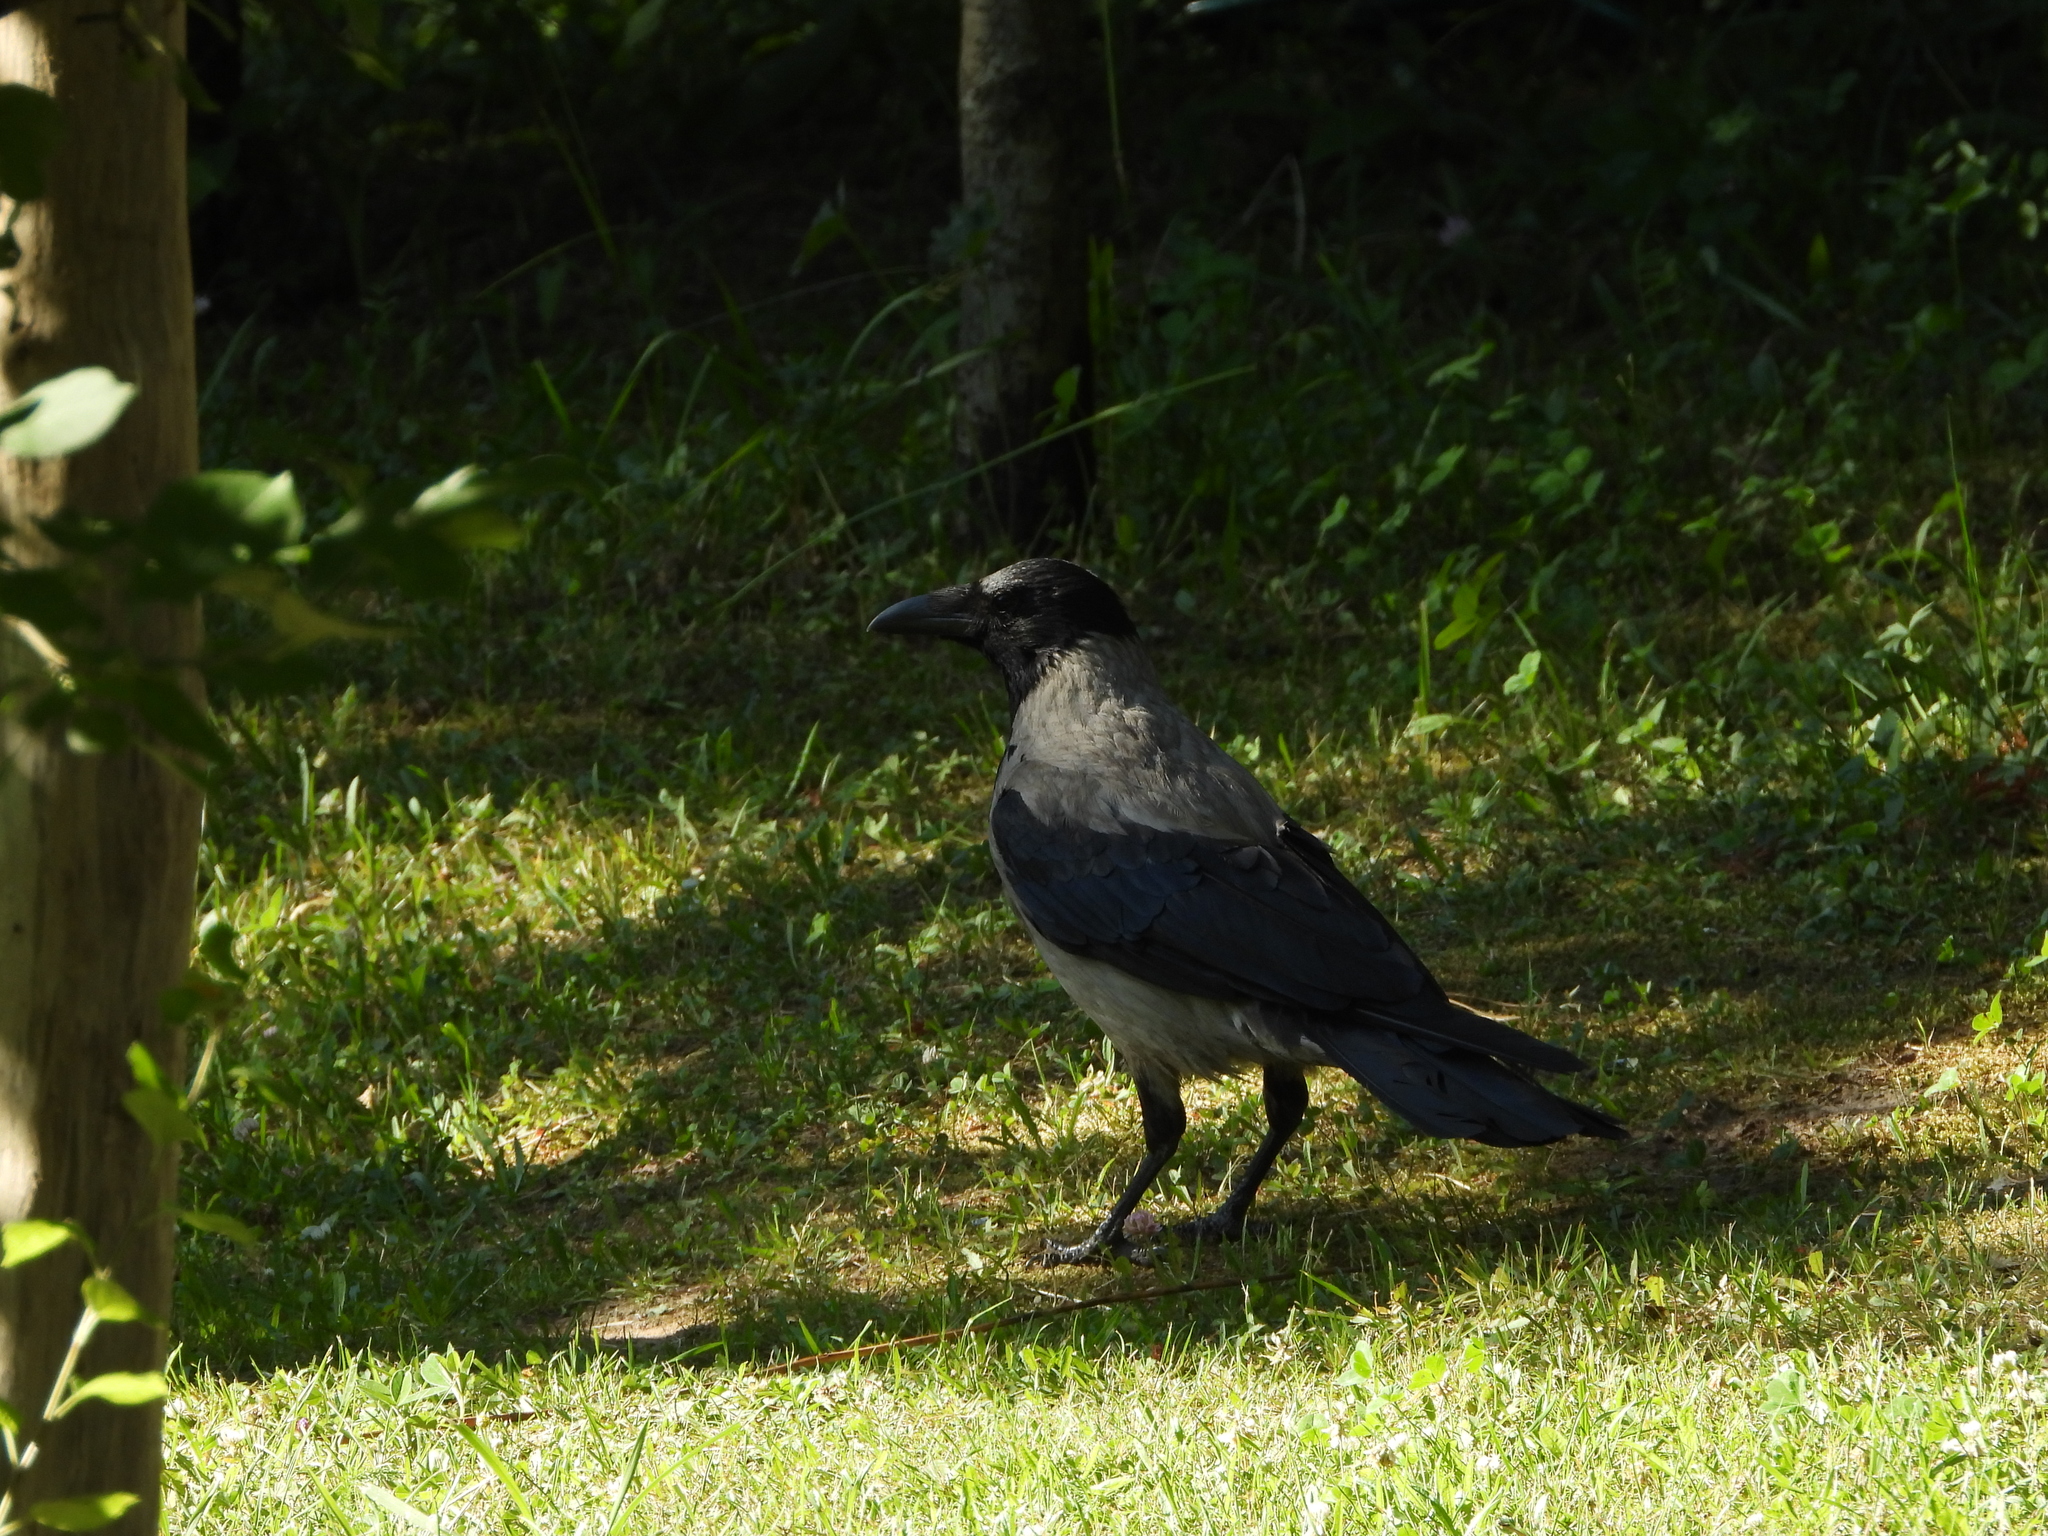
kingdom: Animalia
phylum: Chordata
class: Aves
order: Passeriformes
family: Corvidae
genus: Corvus
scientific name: Corvus cornix
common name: Hooded crow
